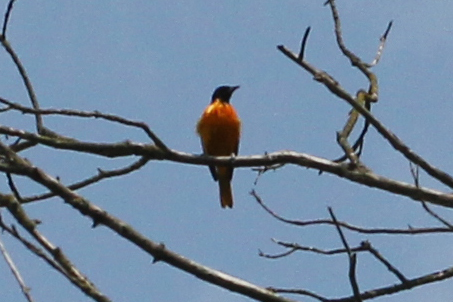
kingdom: Animalia
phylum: Chordata
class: Aves
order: Passeriformes
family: Icteridae
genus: Icterus
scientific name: Icterus galbula
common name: Baltimore oriole
